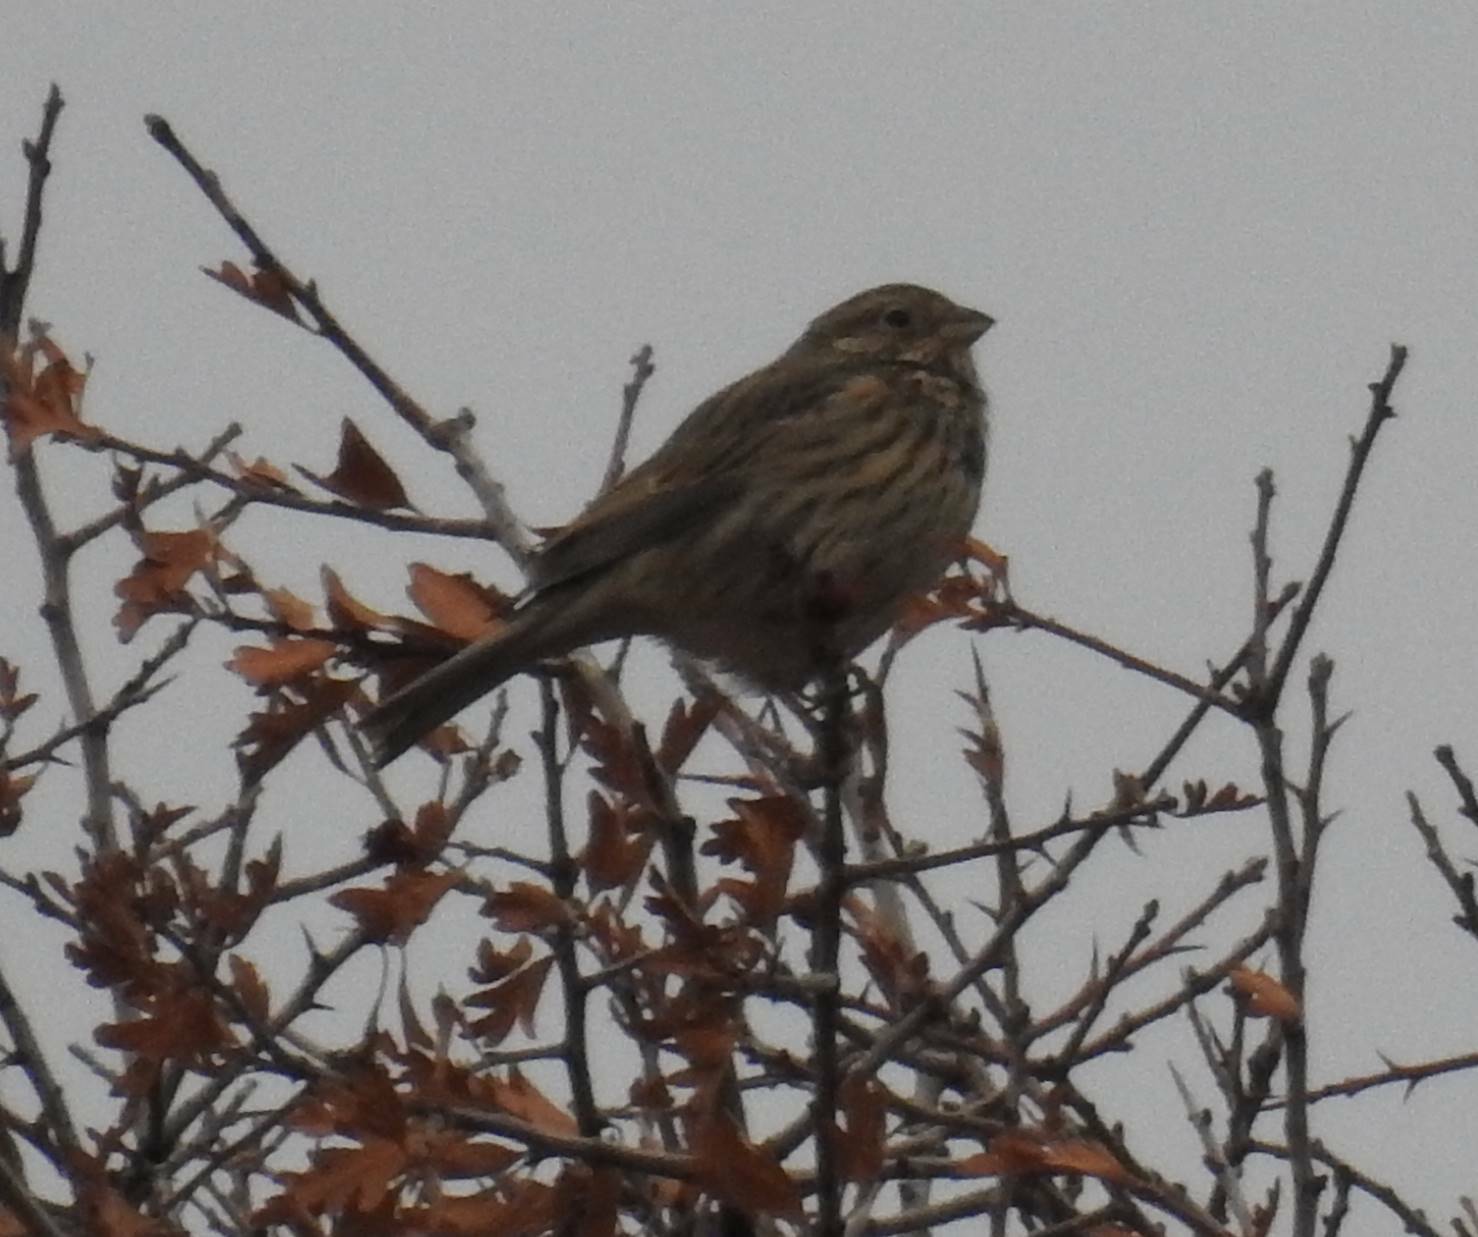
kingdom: Animalia
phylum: Chordata
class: Aves
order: Passeriformes
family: Emberizidae
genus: Emberiza
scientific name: Emberiza calandra
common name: Corn bunting
